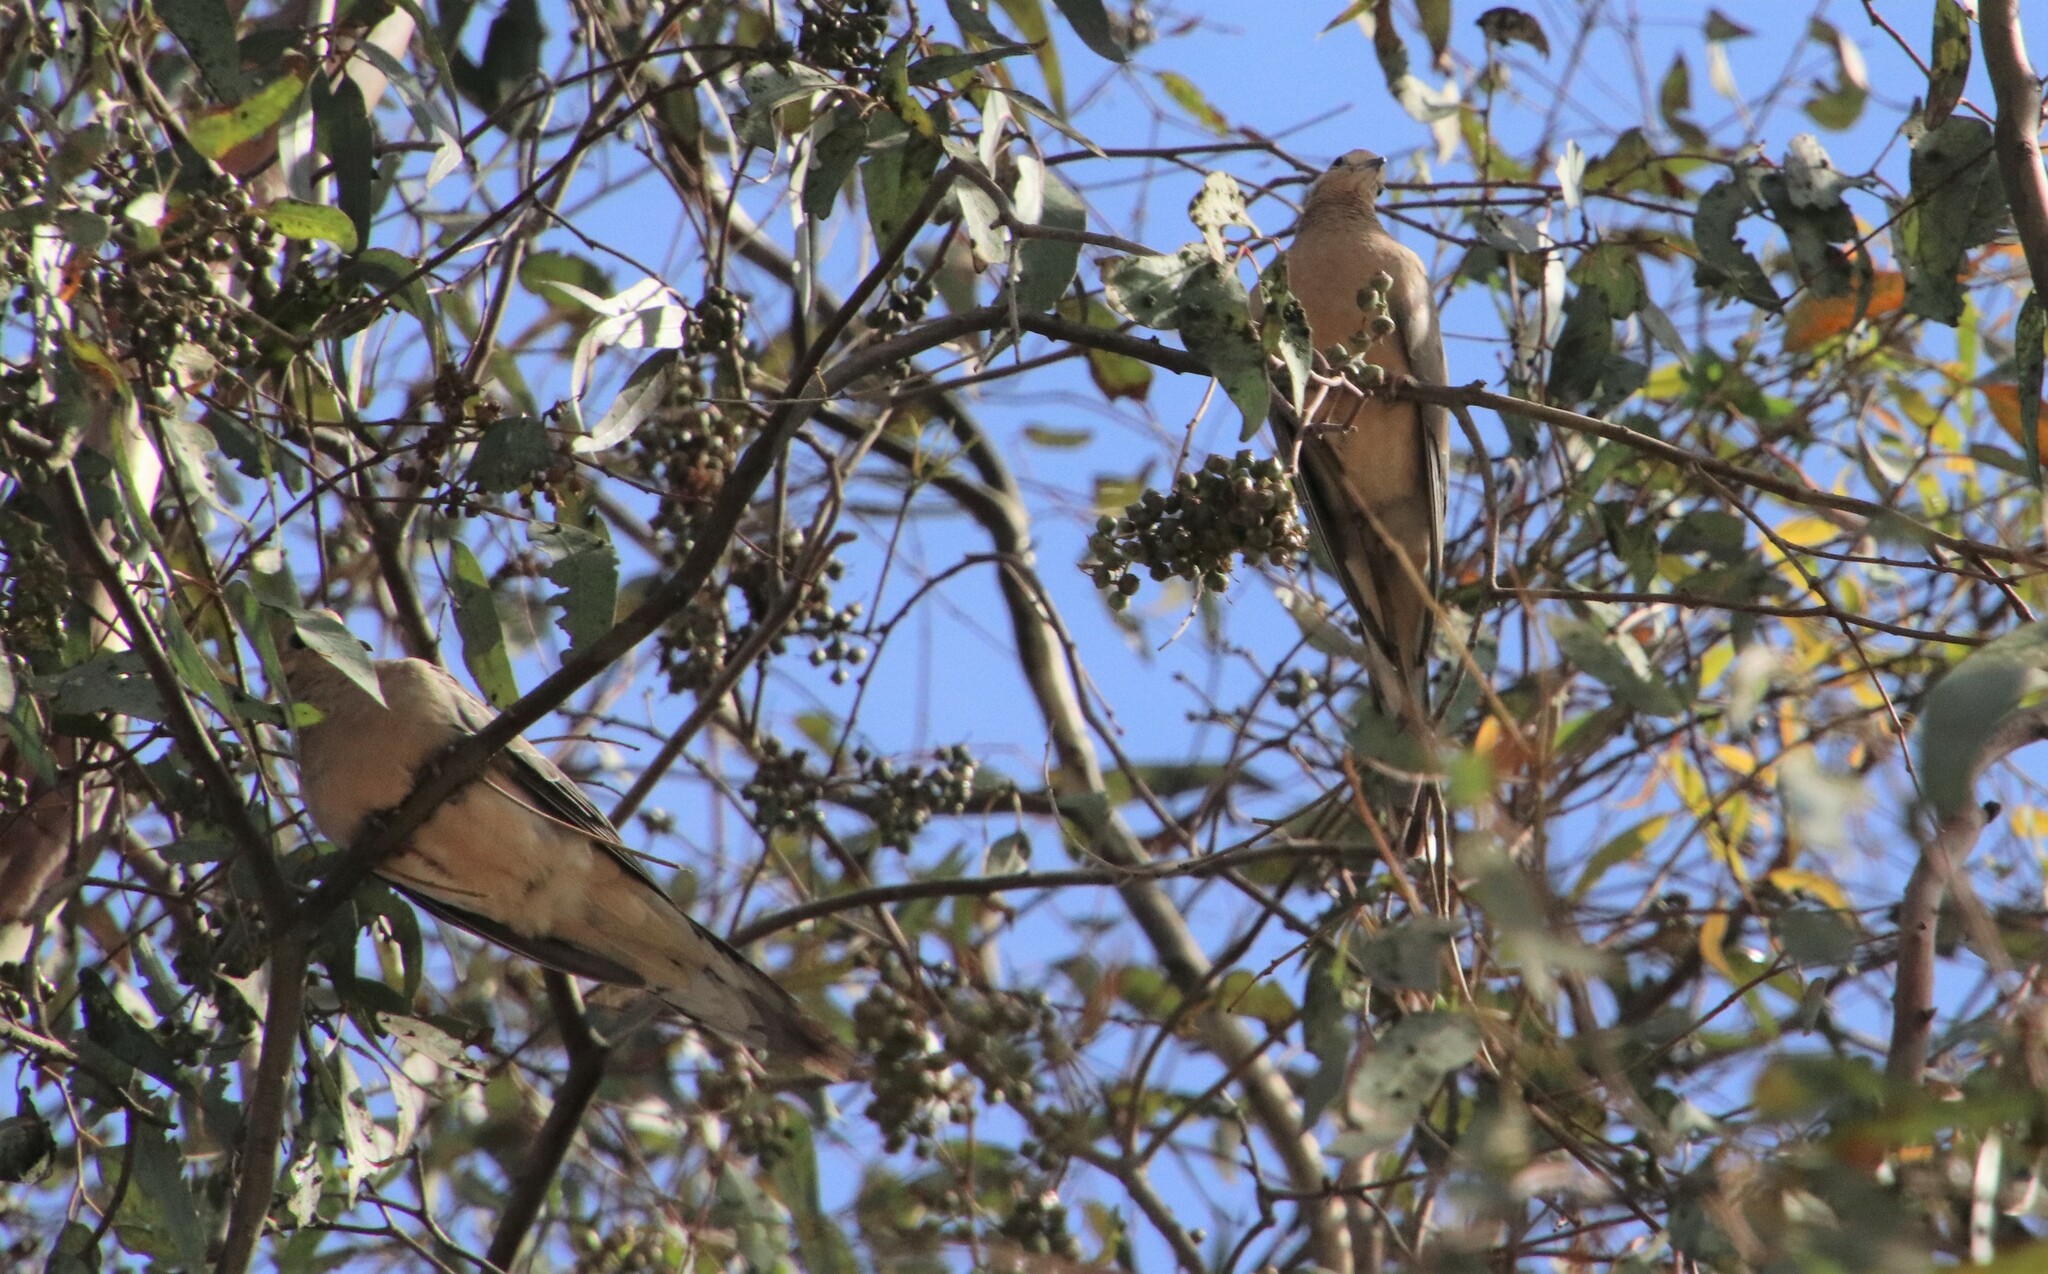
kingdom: Animalia
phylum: Chordata
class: Aves
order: Columbiformes
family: Columbidae
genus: Zenaida
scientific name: Zenaida macroura
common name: Mourning dove
